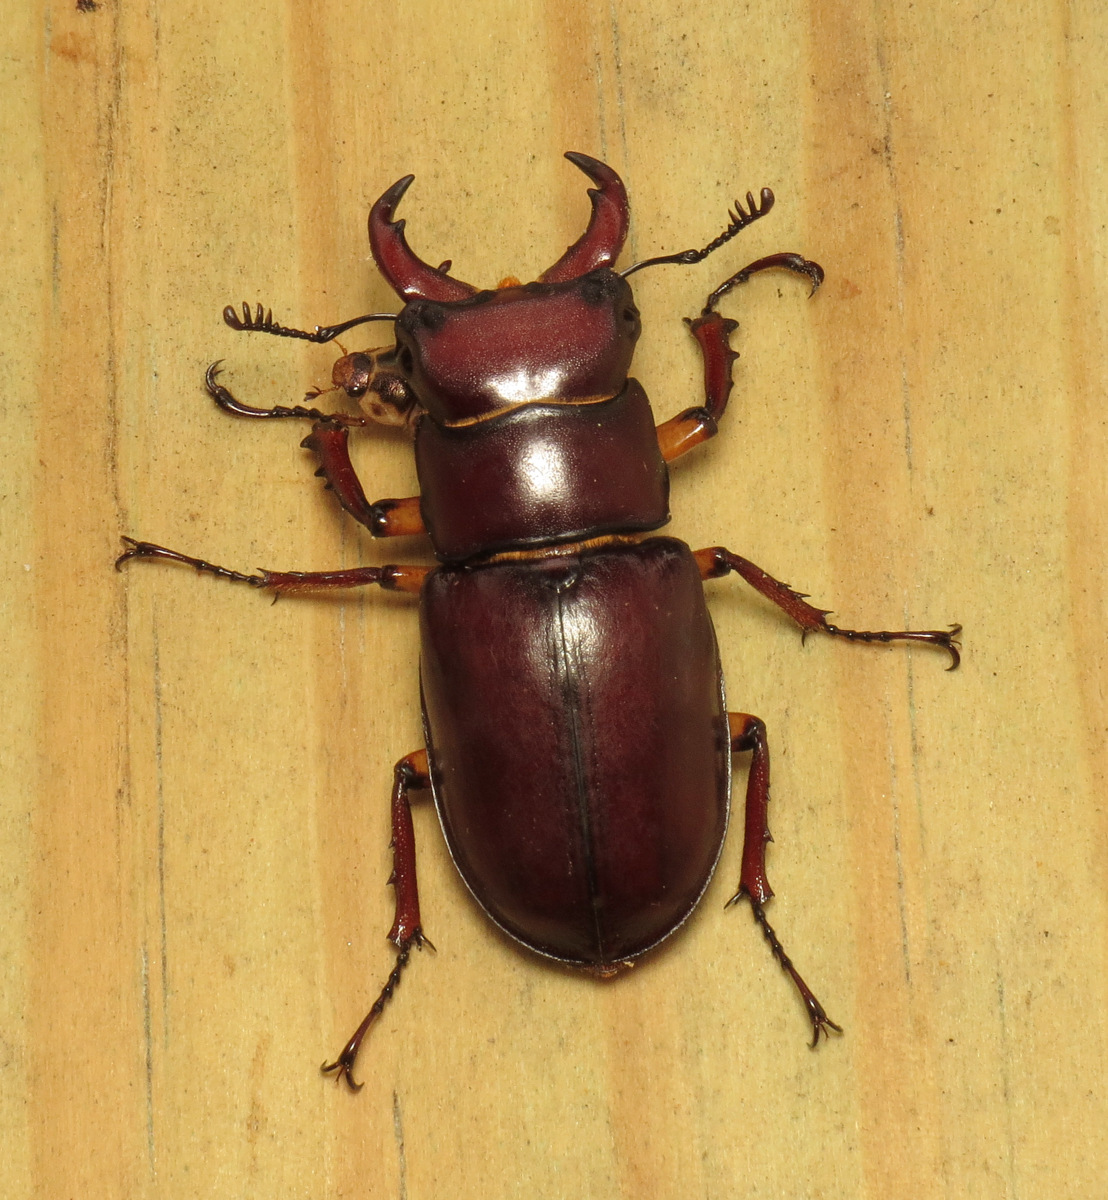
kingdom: Animalia
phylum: Arthropoda
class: Insecta
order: Coleoptera
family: Lucanidae
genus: Lucanus
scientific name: Lucanus capreolus
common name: Stag beetle
